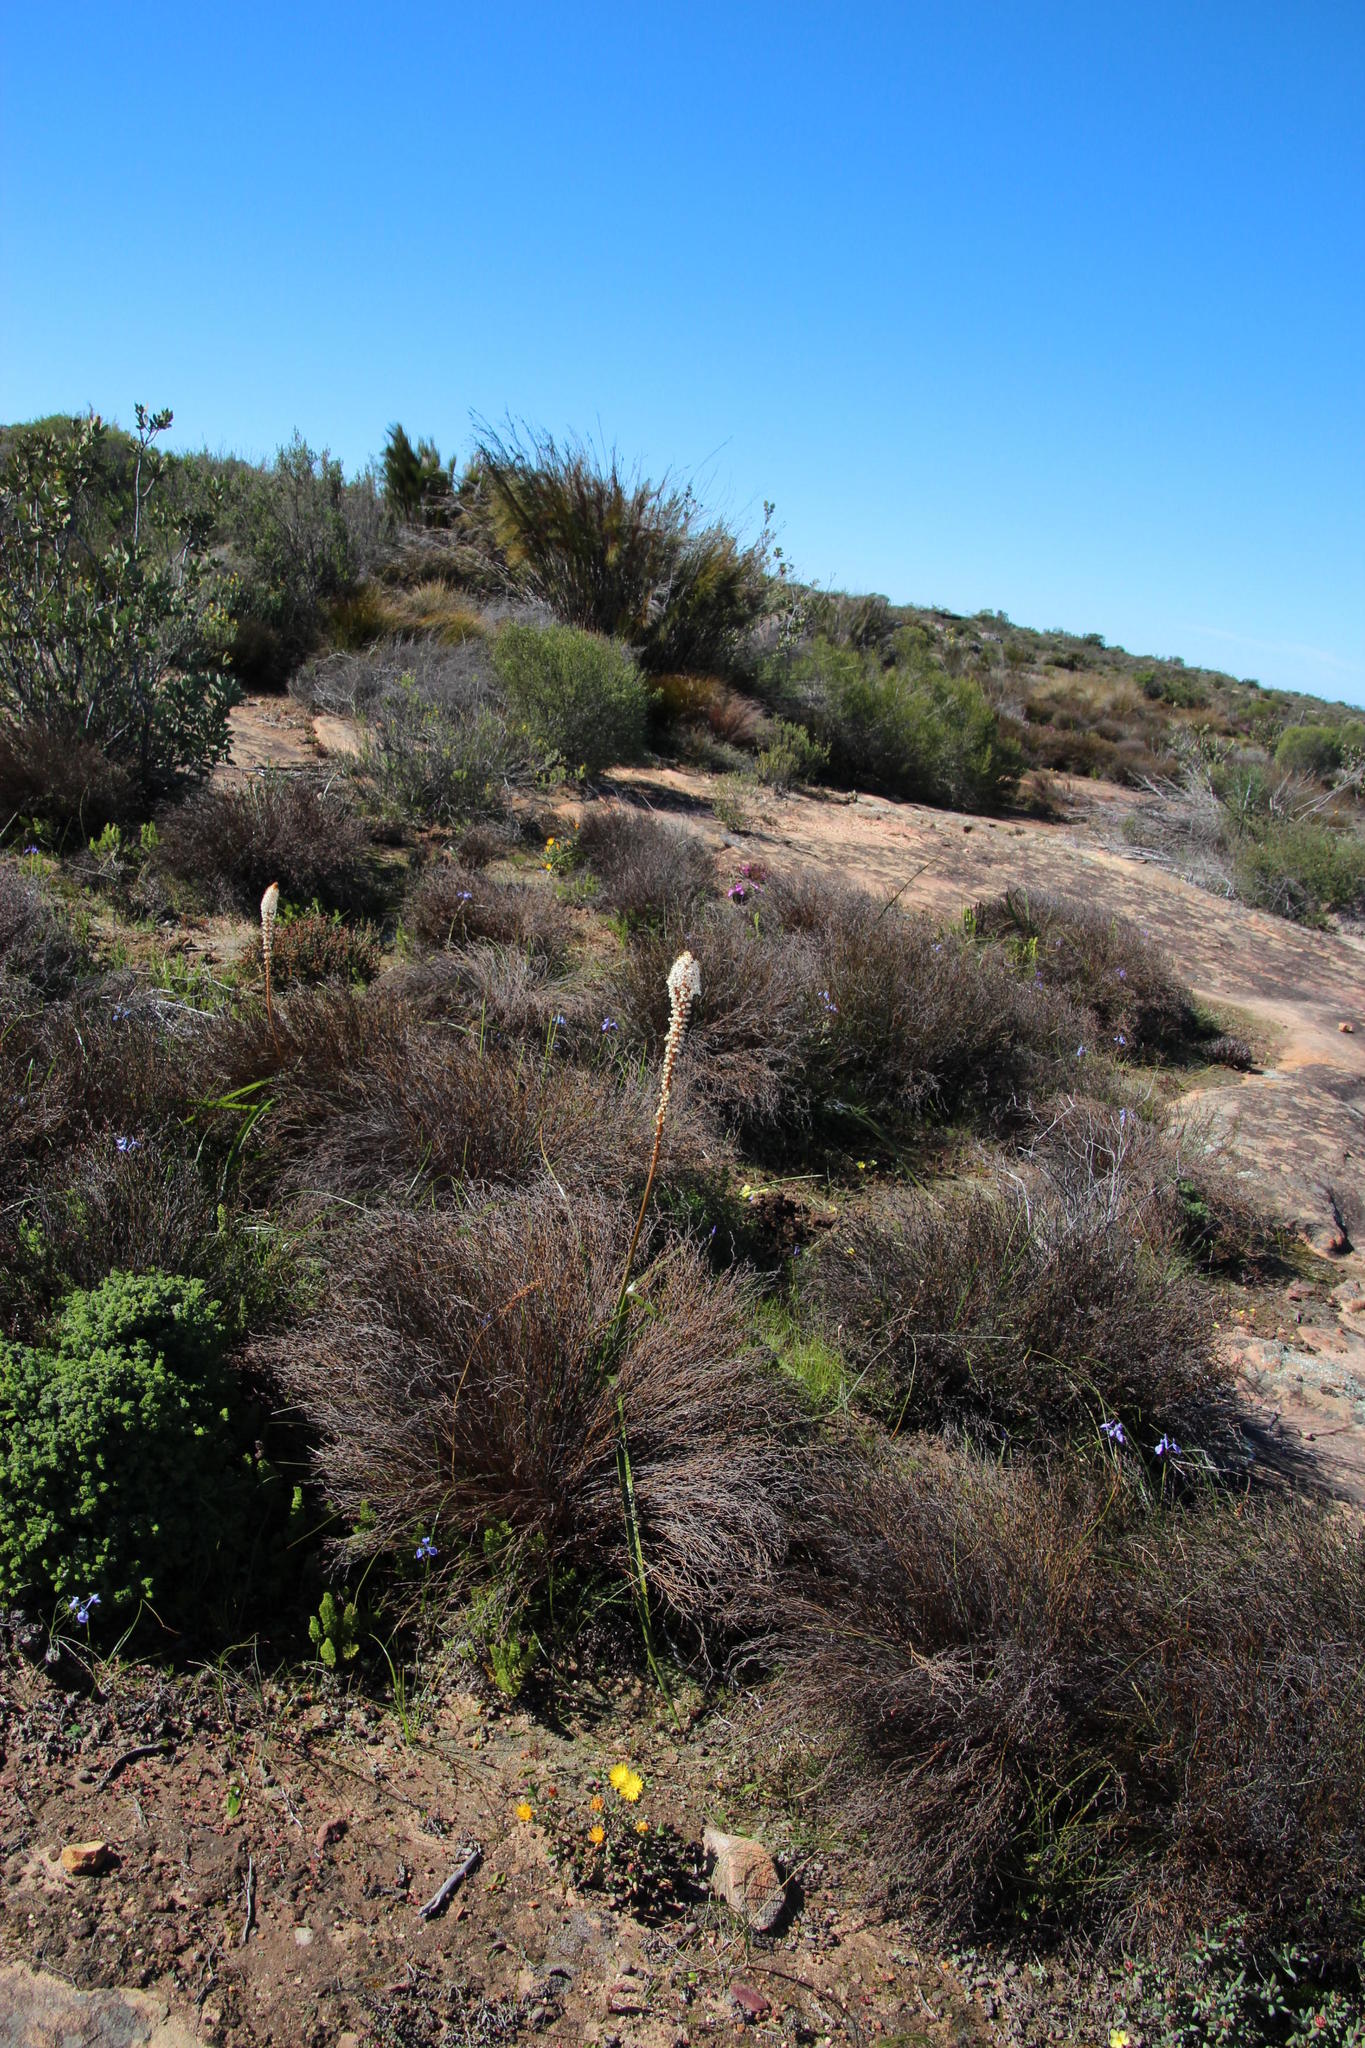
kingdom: Plantae
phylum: Tracheophyta
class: Liliopsida
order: Asparagales
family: Asphodelaceae
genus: Bulbinella
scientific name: Bulbinella cauda-felis
